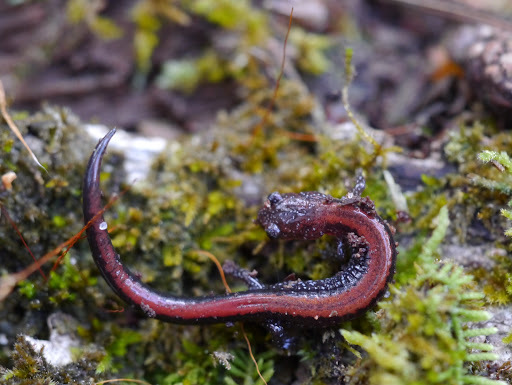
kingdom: Animalia
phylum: Chordata
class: Amphibia
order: Caudata
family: Plethodontidae
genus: Plethodon
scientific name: Plethodon cinereus
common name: Redback salamander
